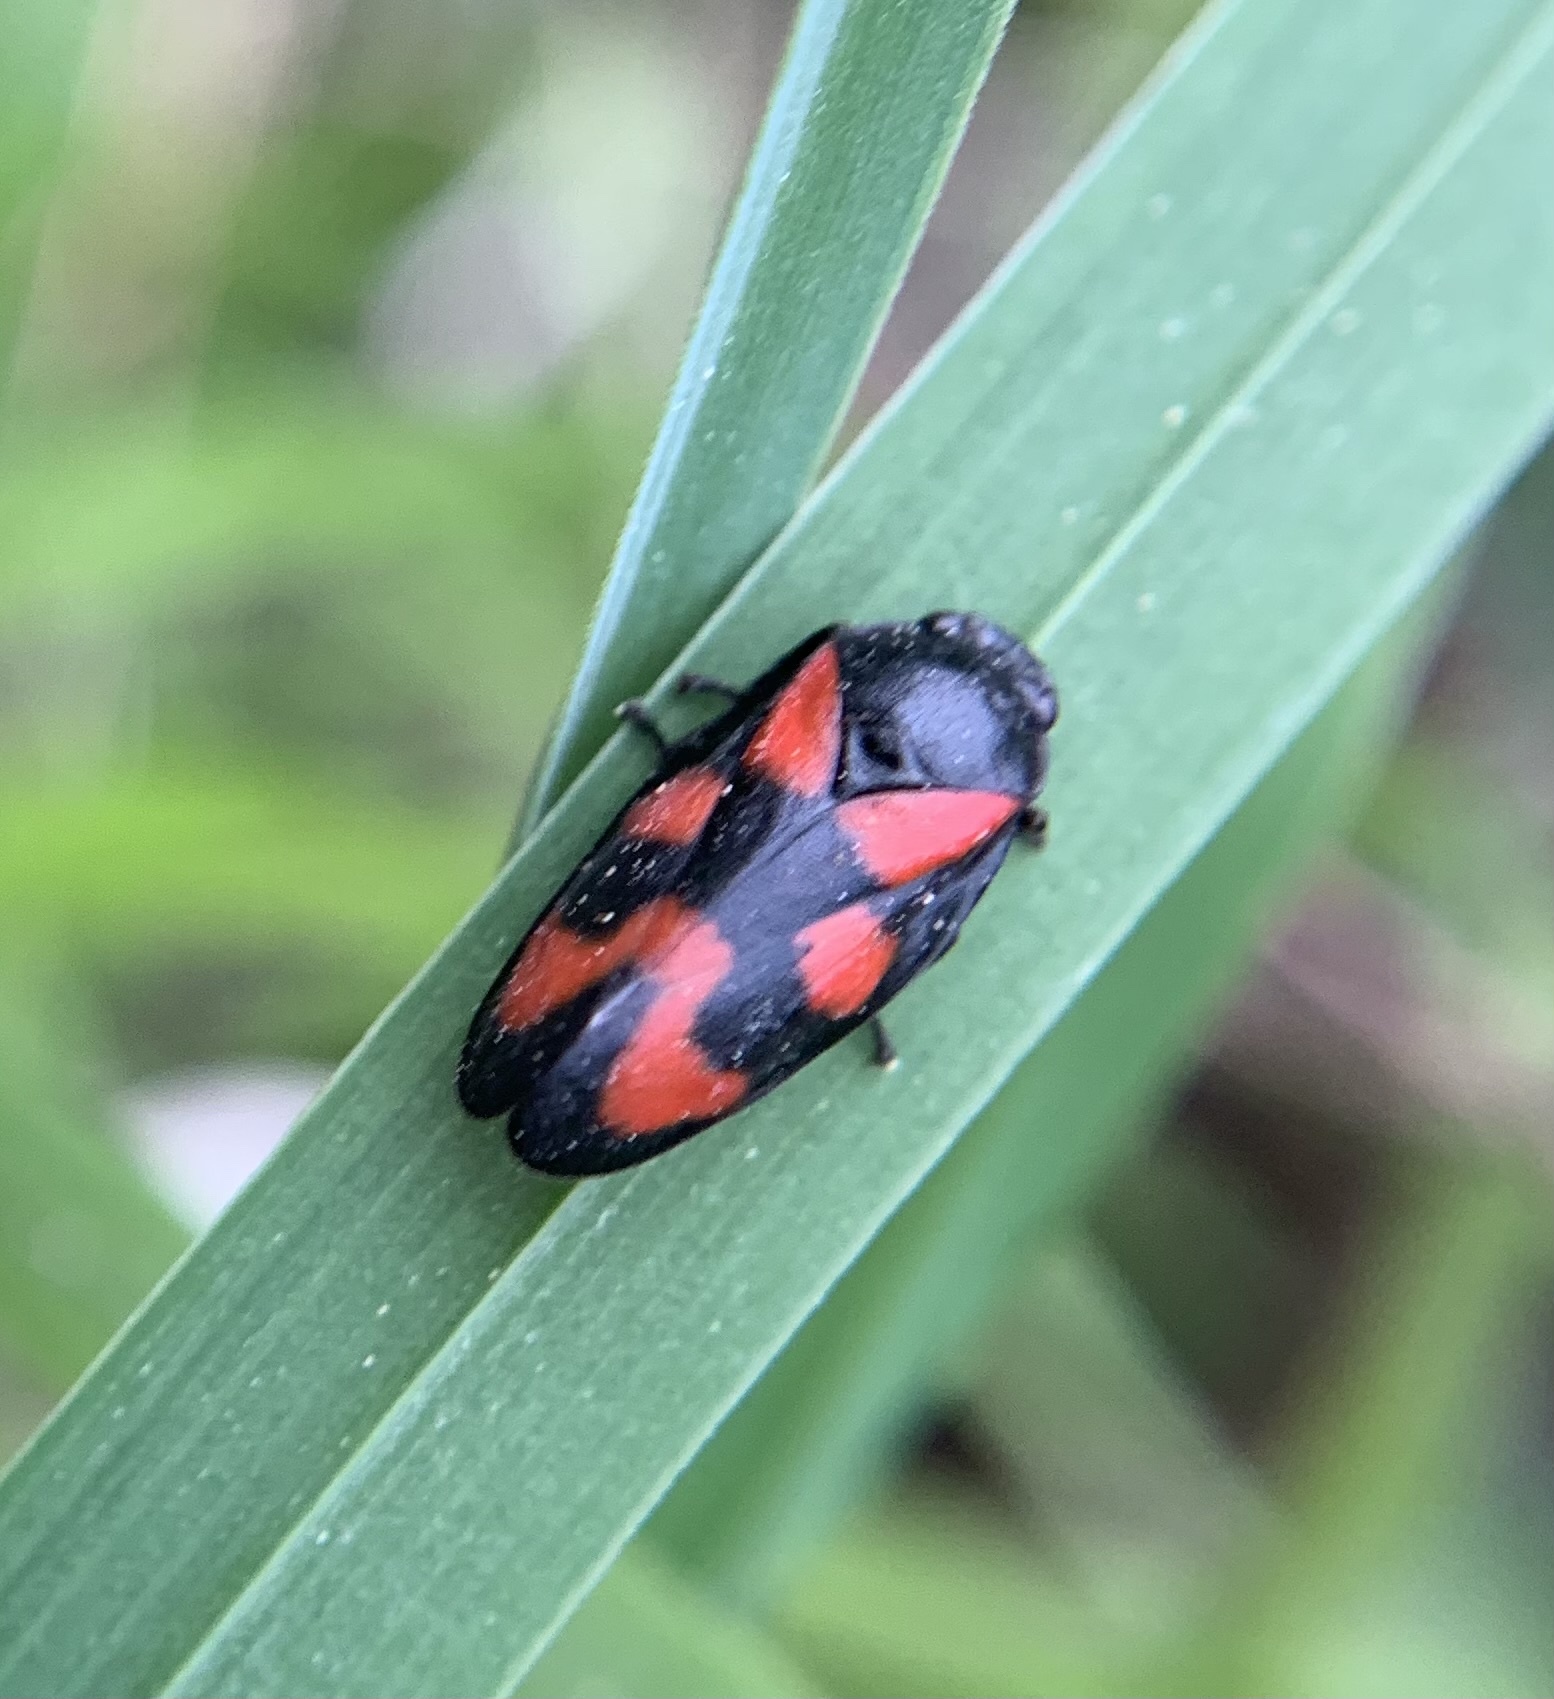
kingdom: Animalia
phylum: Arthropoda
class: Insecta
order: Hemiptera
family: Cercopidae
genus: Cercopis
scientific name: Cercopis vulnerata
